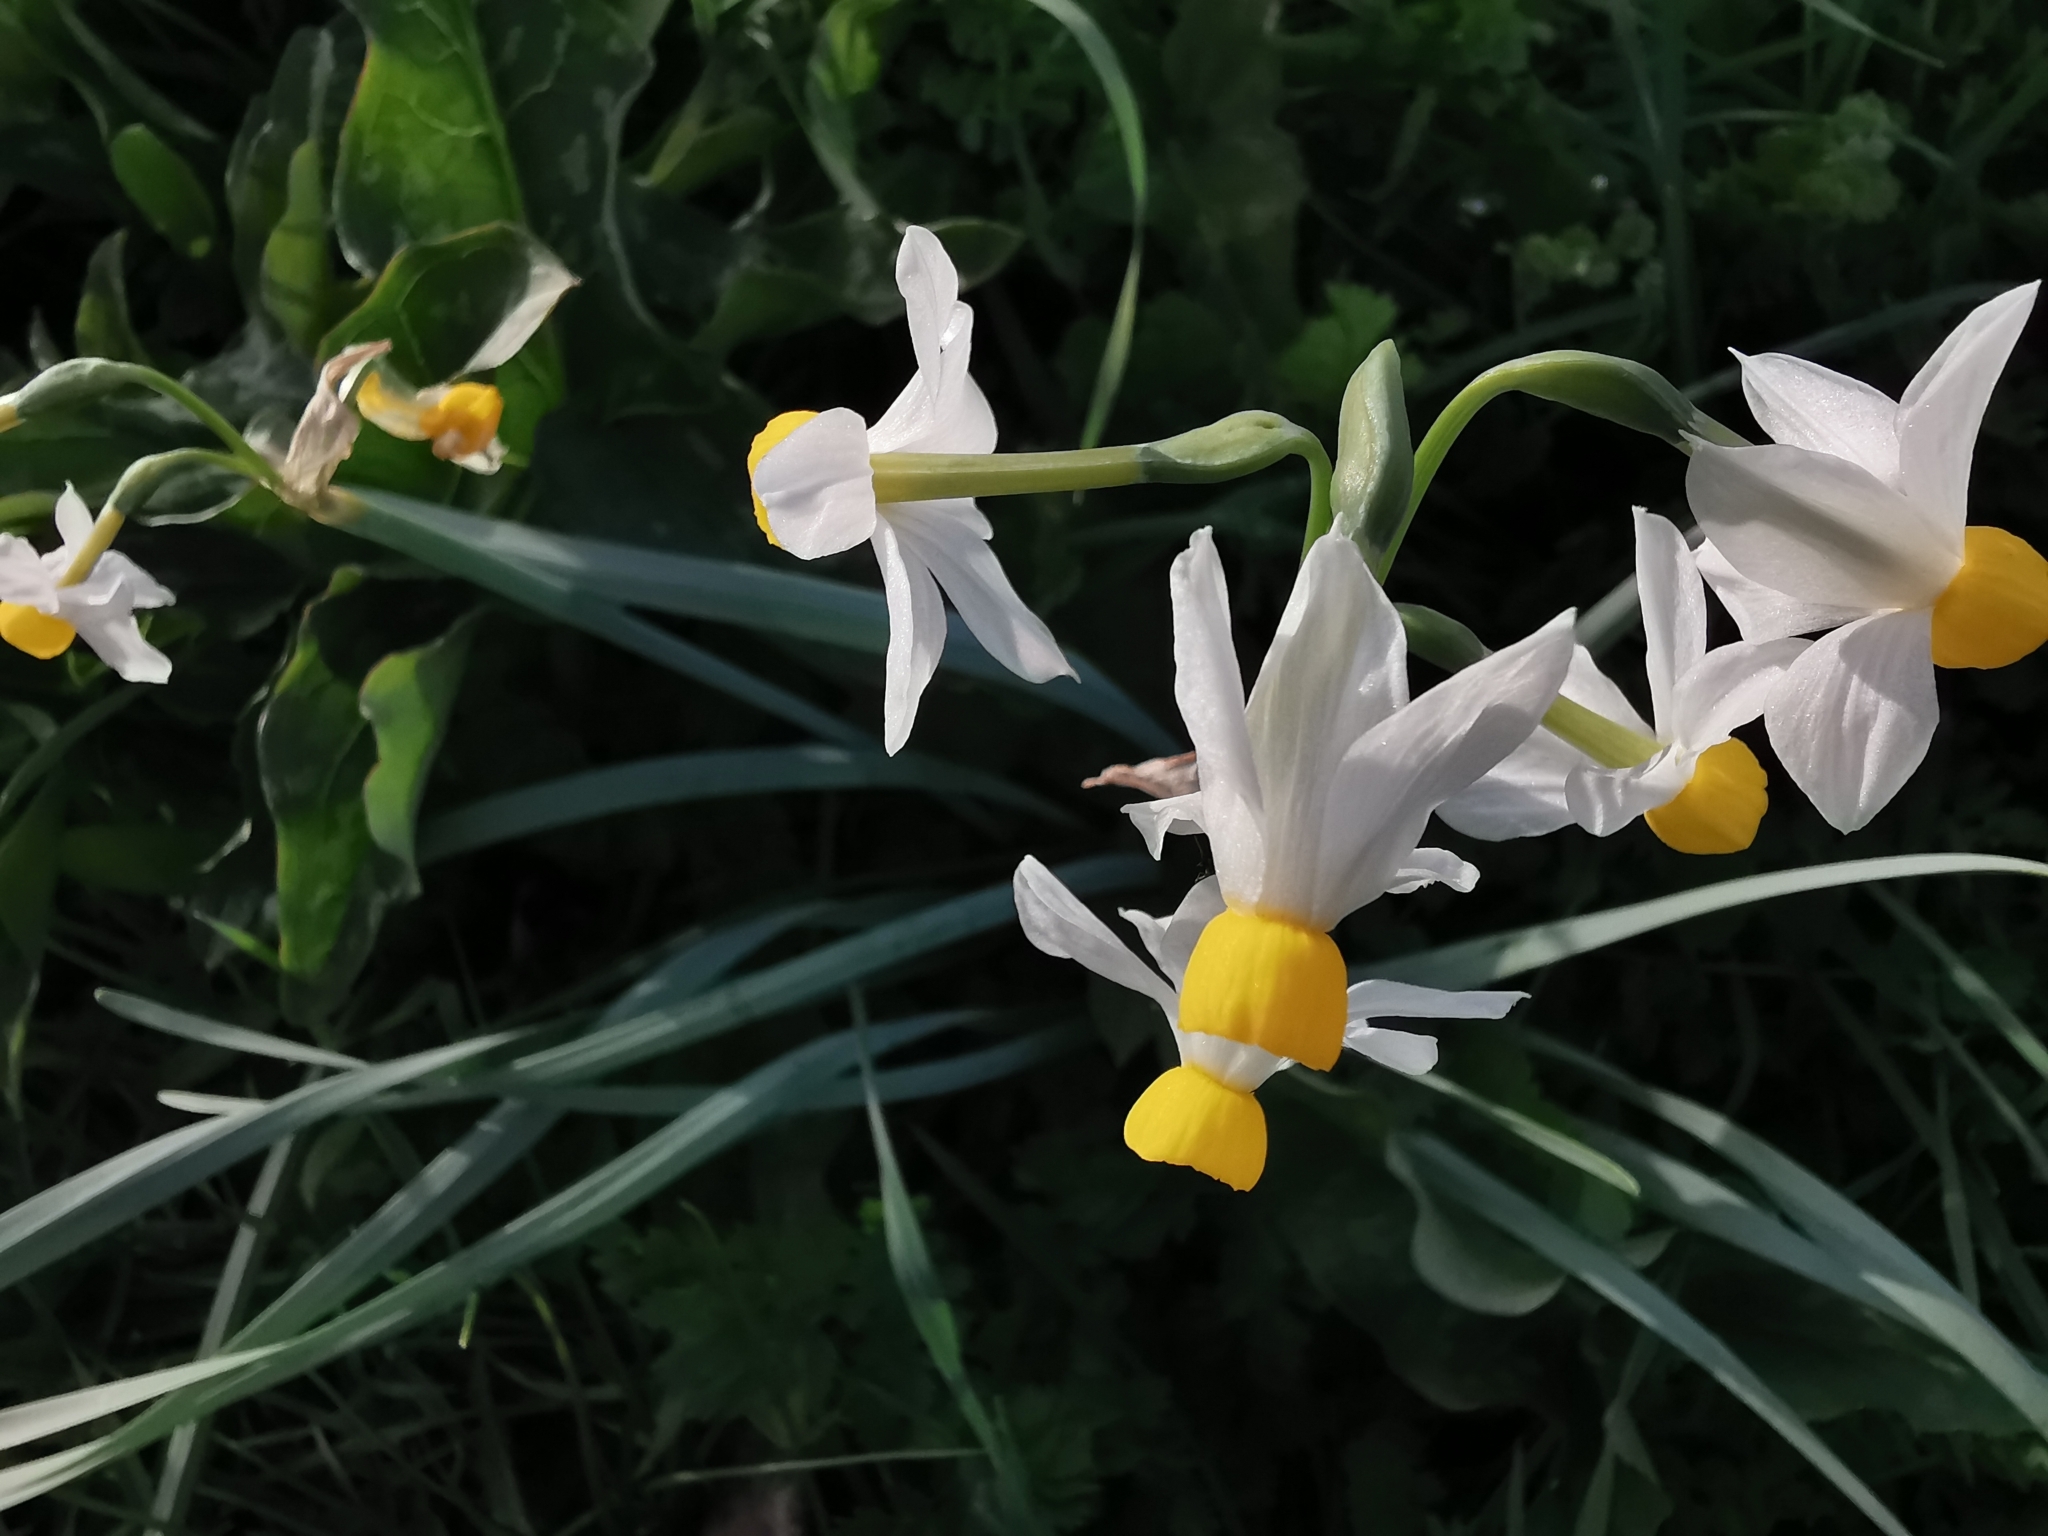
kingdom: Plantae
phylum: Tracheophyta
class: Liliopsida
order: Asparagales
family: Amaryllidaceae
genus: Narcissus
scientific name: Narcissus tazetta
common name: Bunch-flowered daffodil
